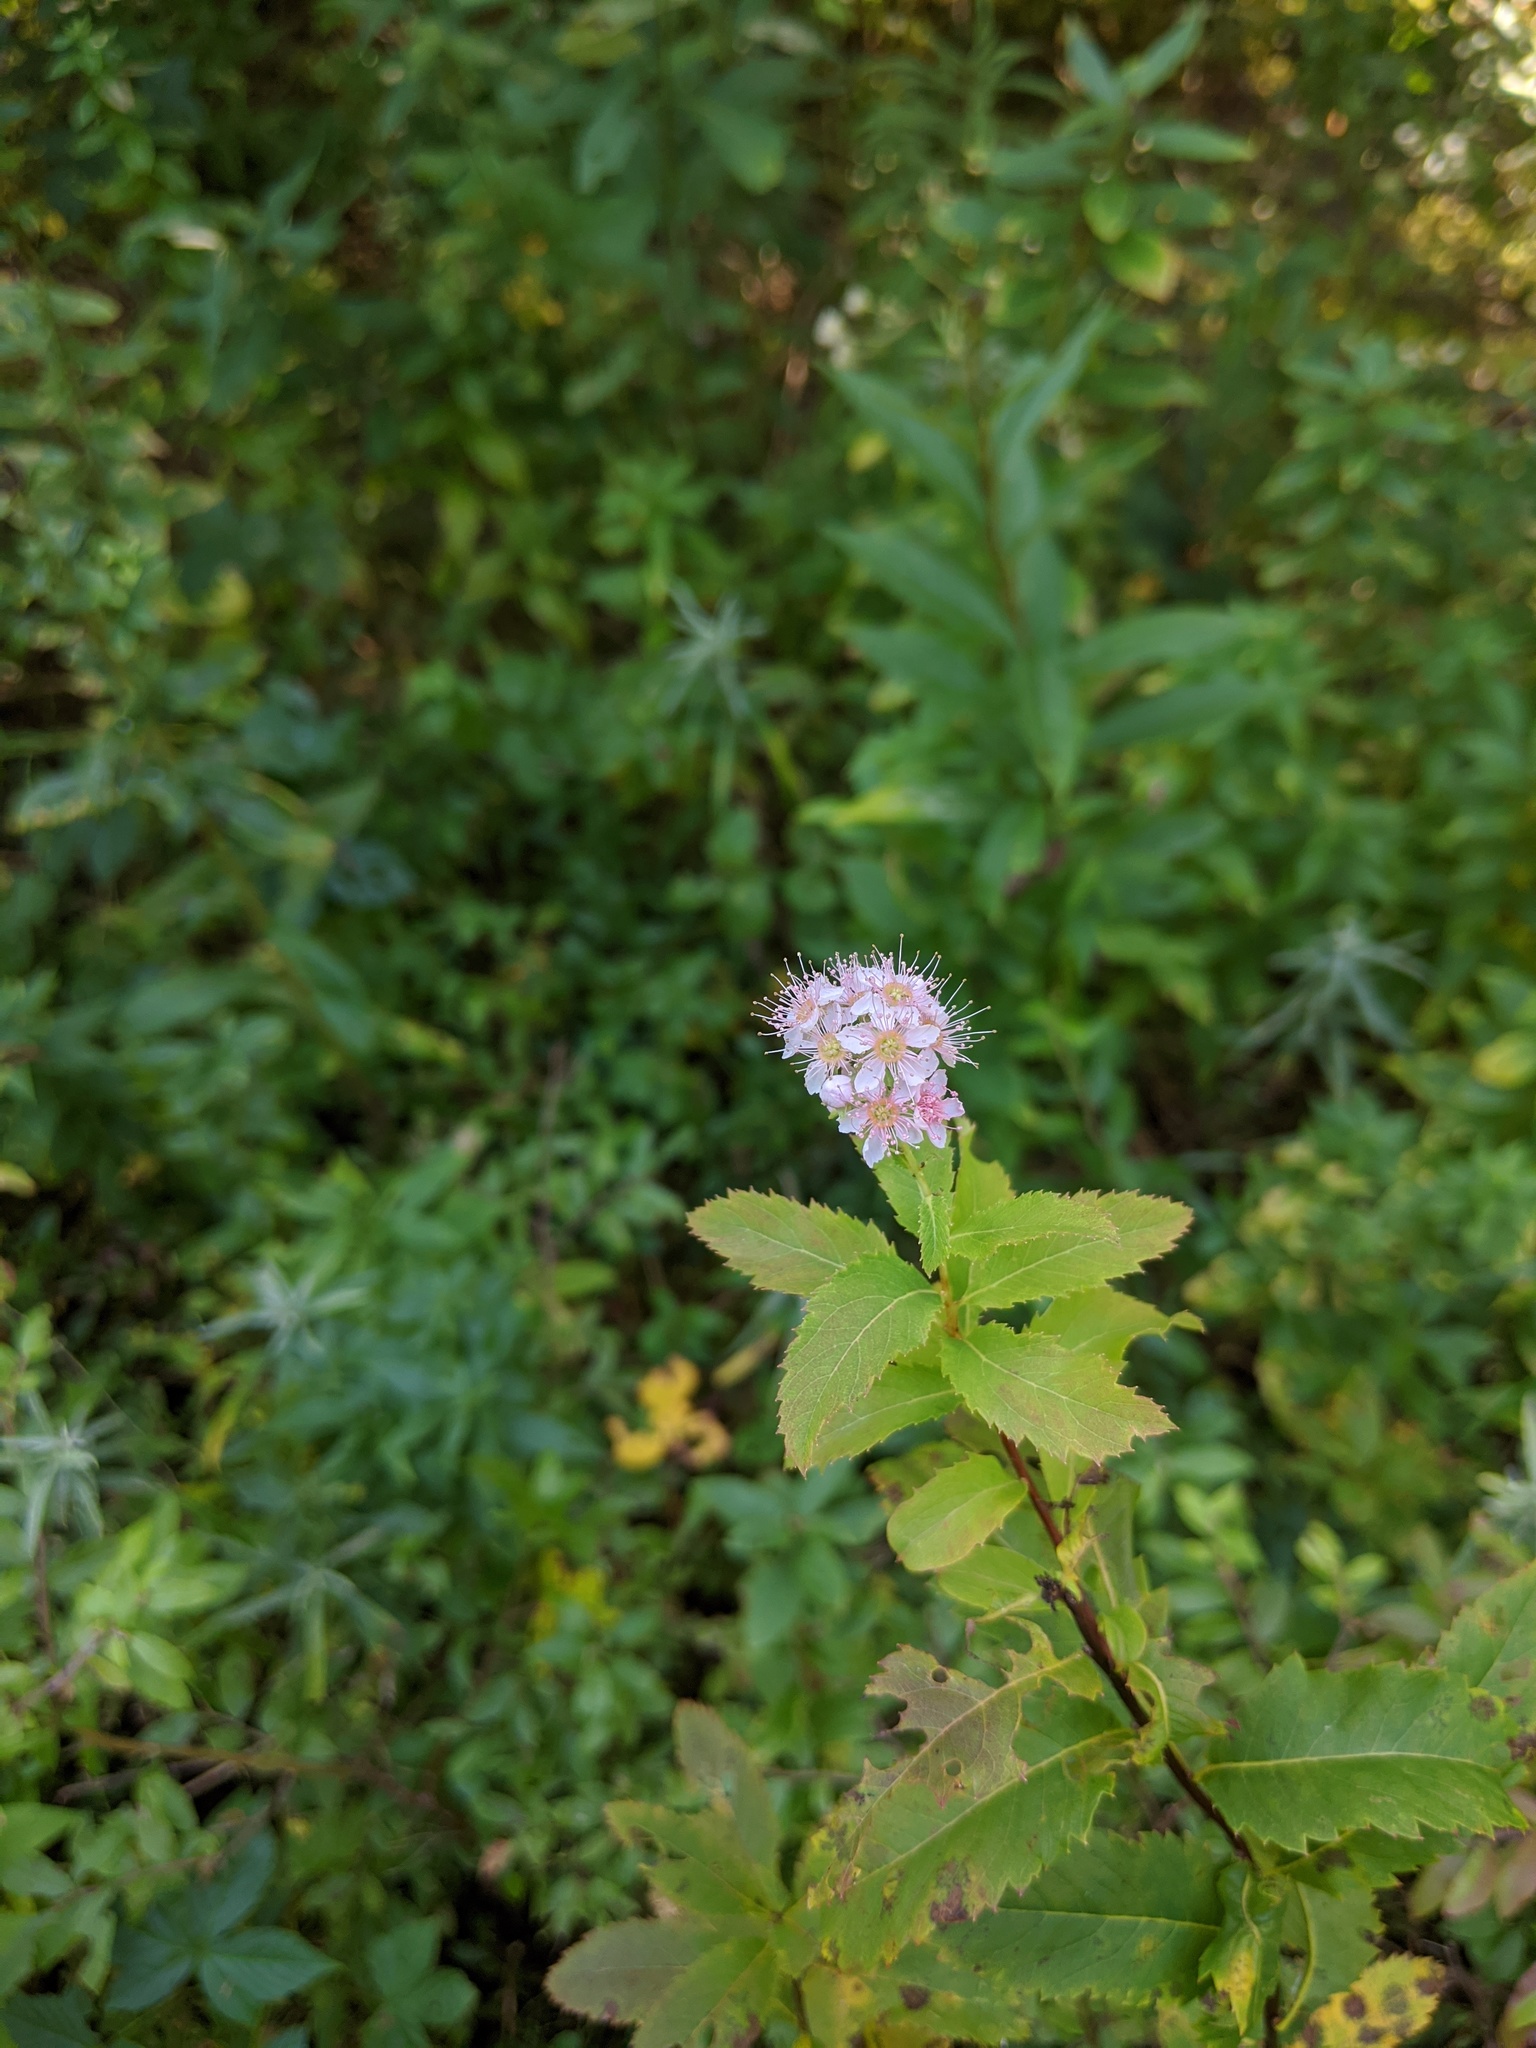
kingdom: Plantae
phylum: Tracheophyta
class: Magnoliopsida
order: Rosales
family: Rosaceae
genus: Spiraea
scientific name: Spiraea alba
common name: Pale bridewort
